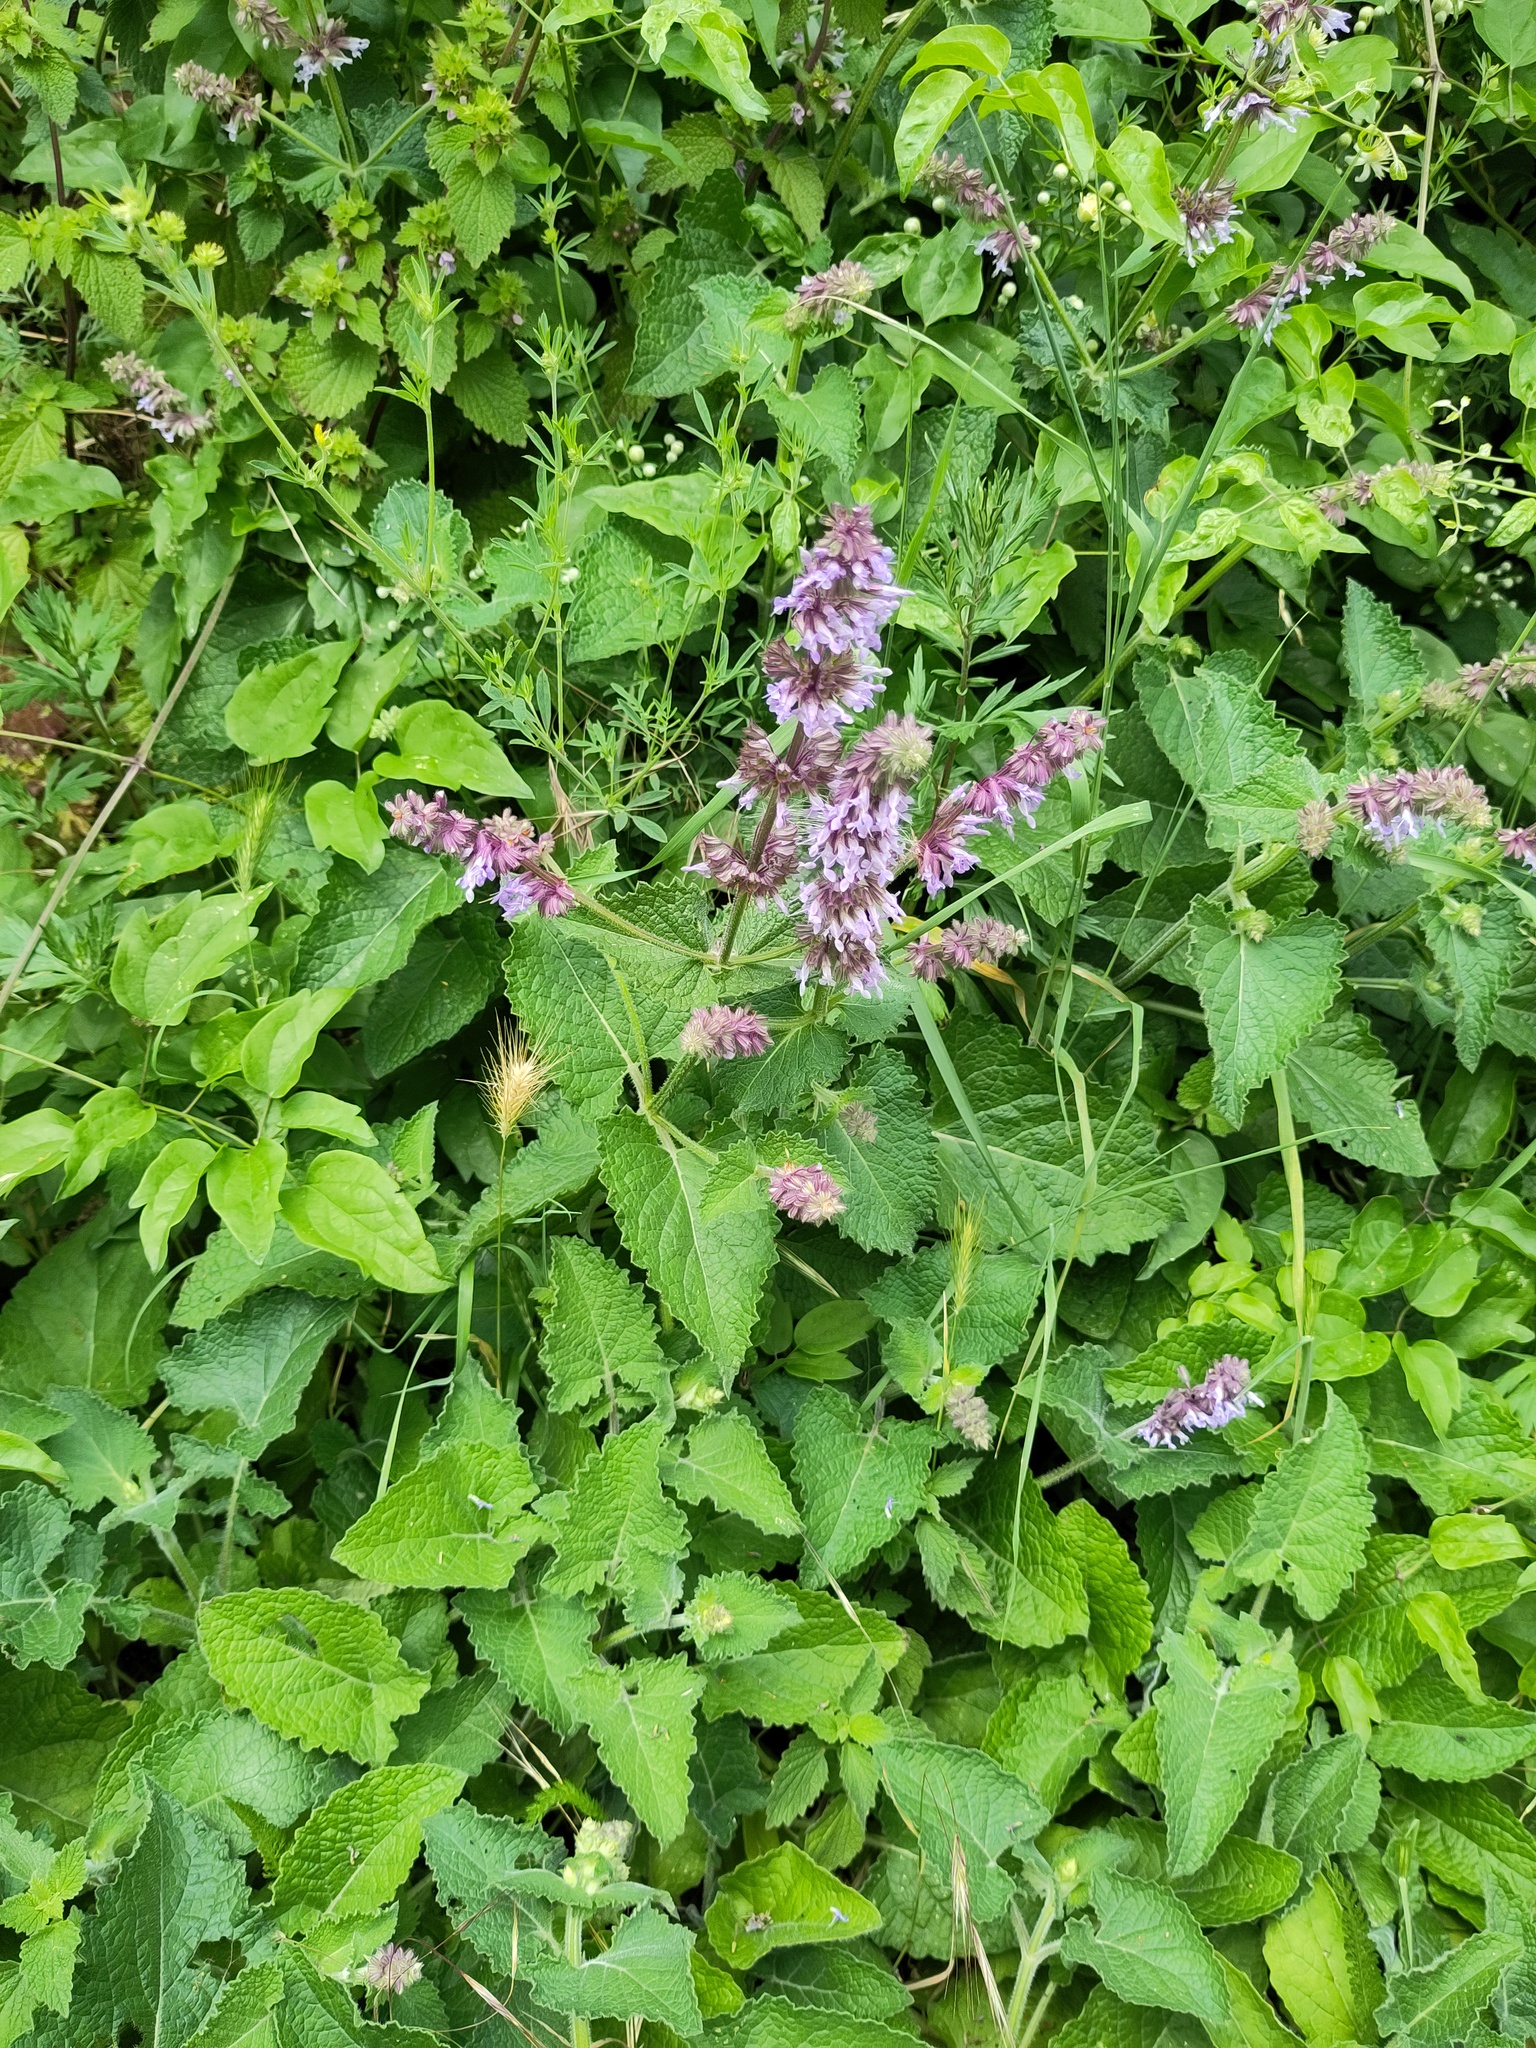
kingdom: Plantae
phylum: Tracheophyta
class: Magnoliopsida
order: Lamiales
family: Lamiaceae
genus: Salvia
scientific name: Salvia verticillata
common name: Whorled clary
